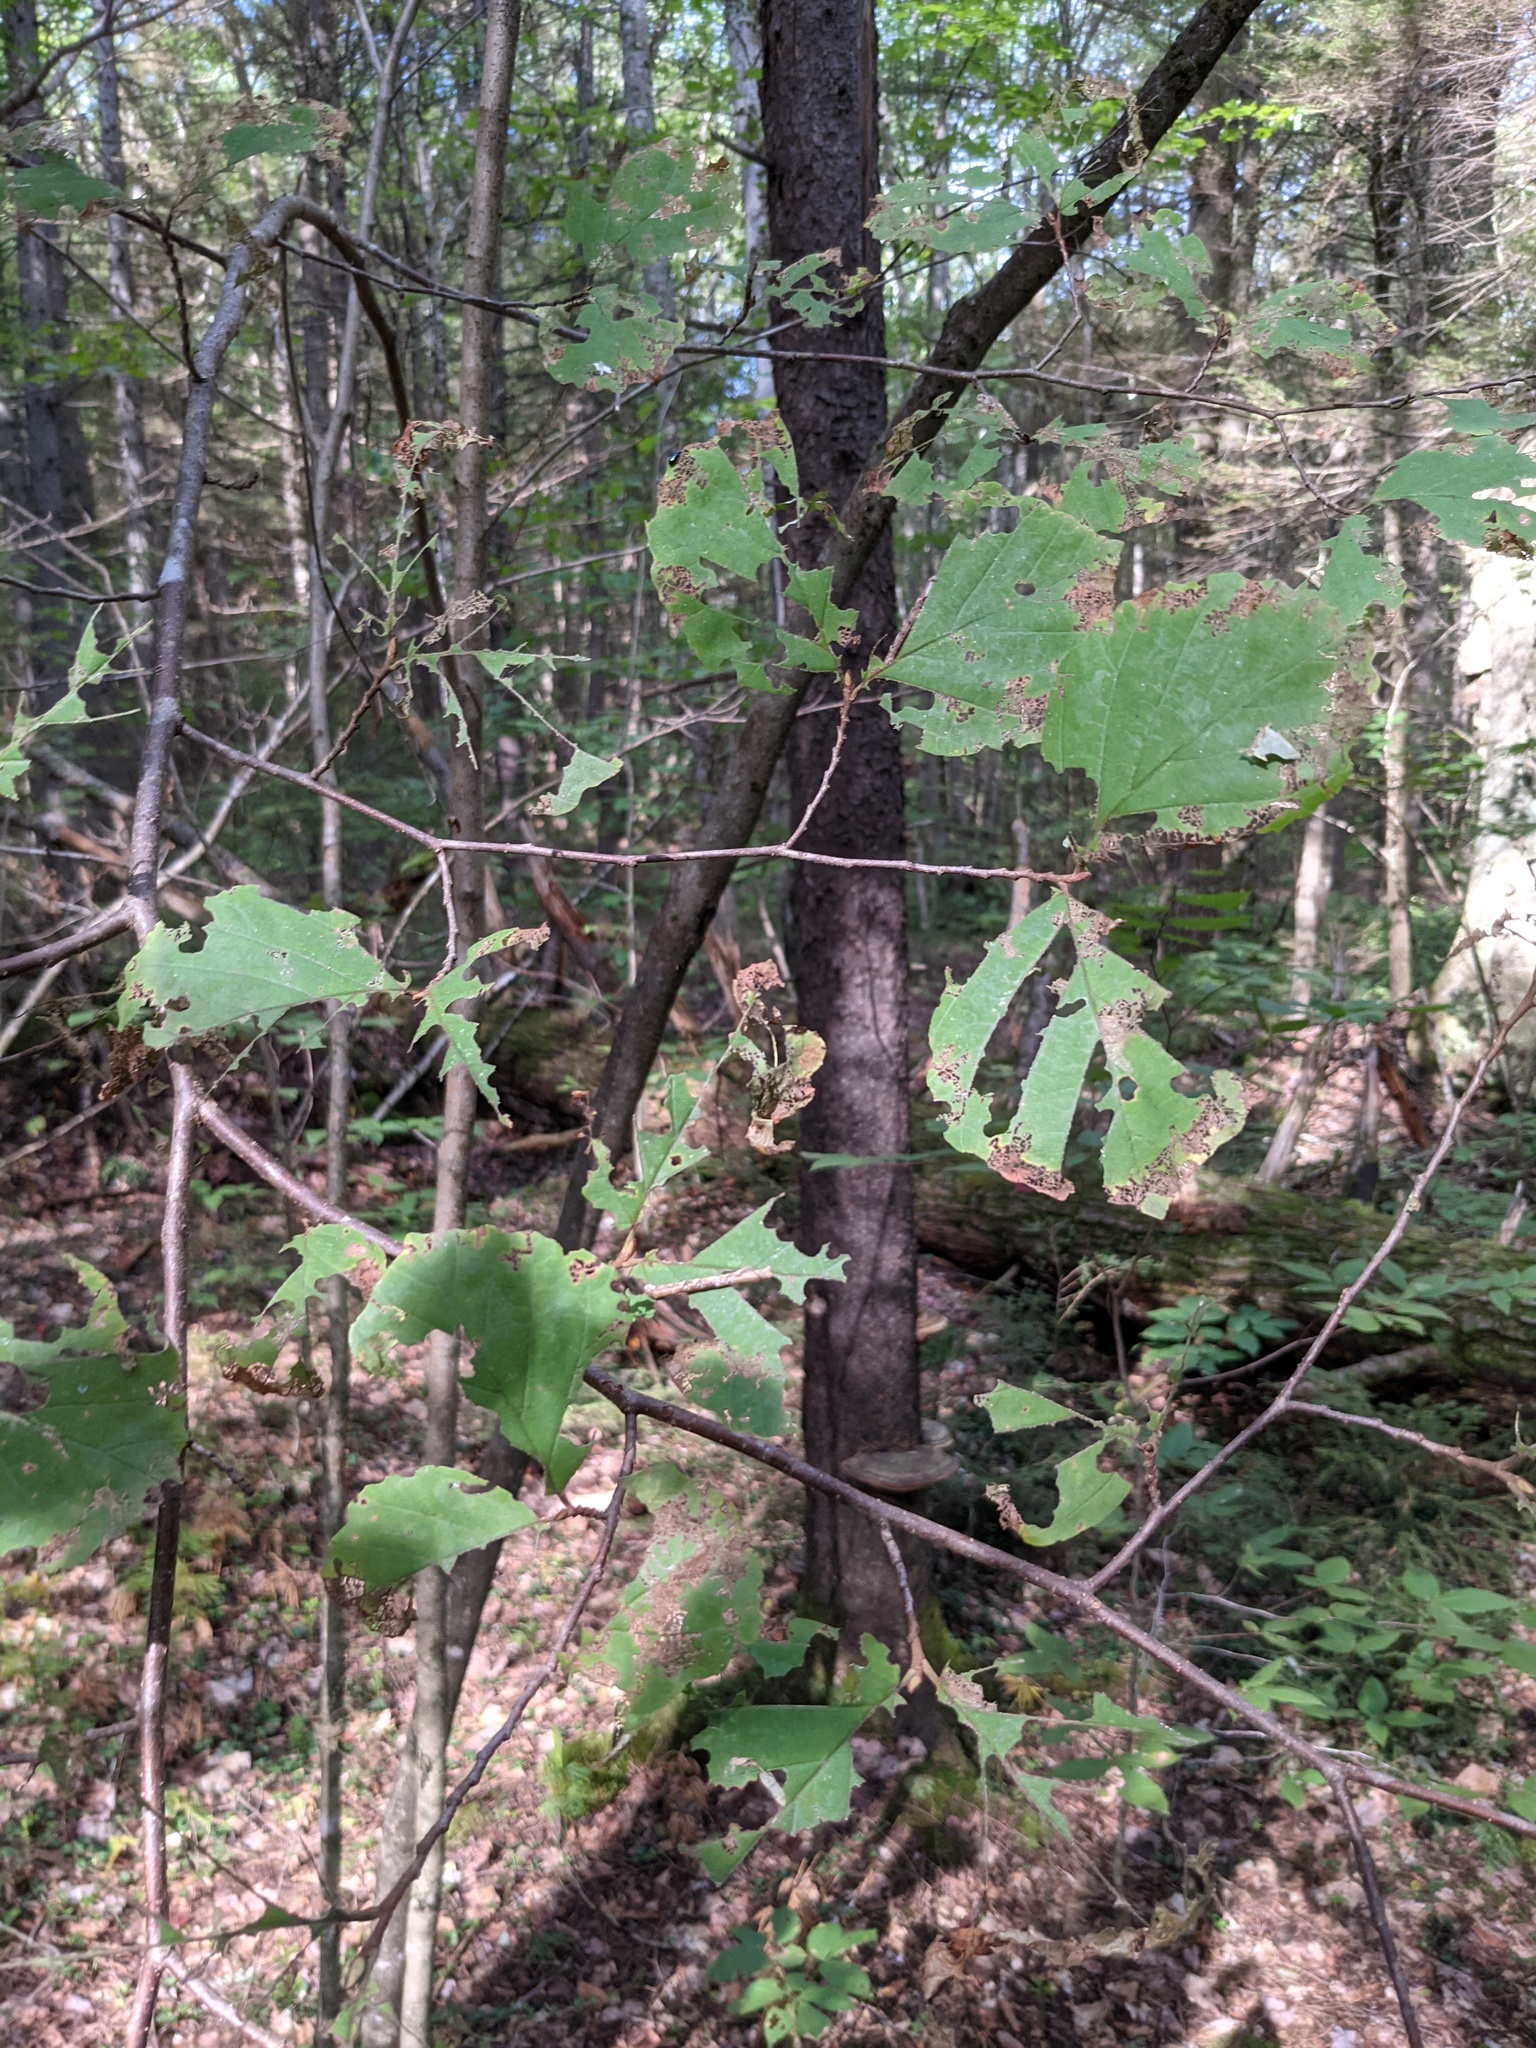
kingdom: Plantae
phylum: Tracheophyta
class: Magnoliopsida
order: Saxifragales
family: Hamamelidaceae
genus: Hamamelis
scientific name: Hamamelis virginiana
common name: Witch-hazel
